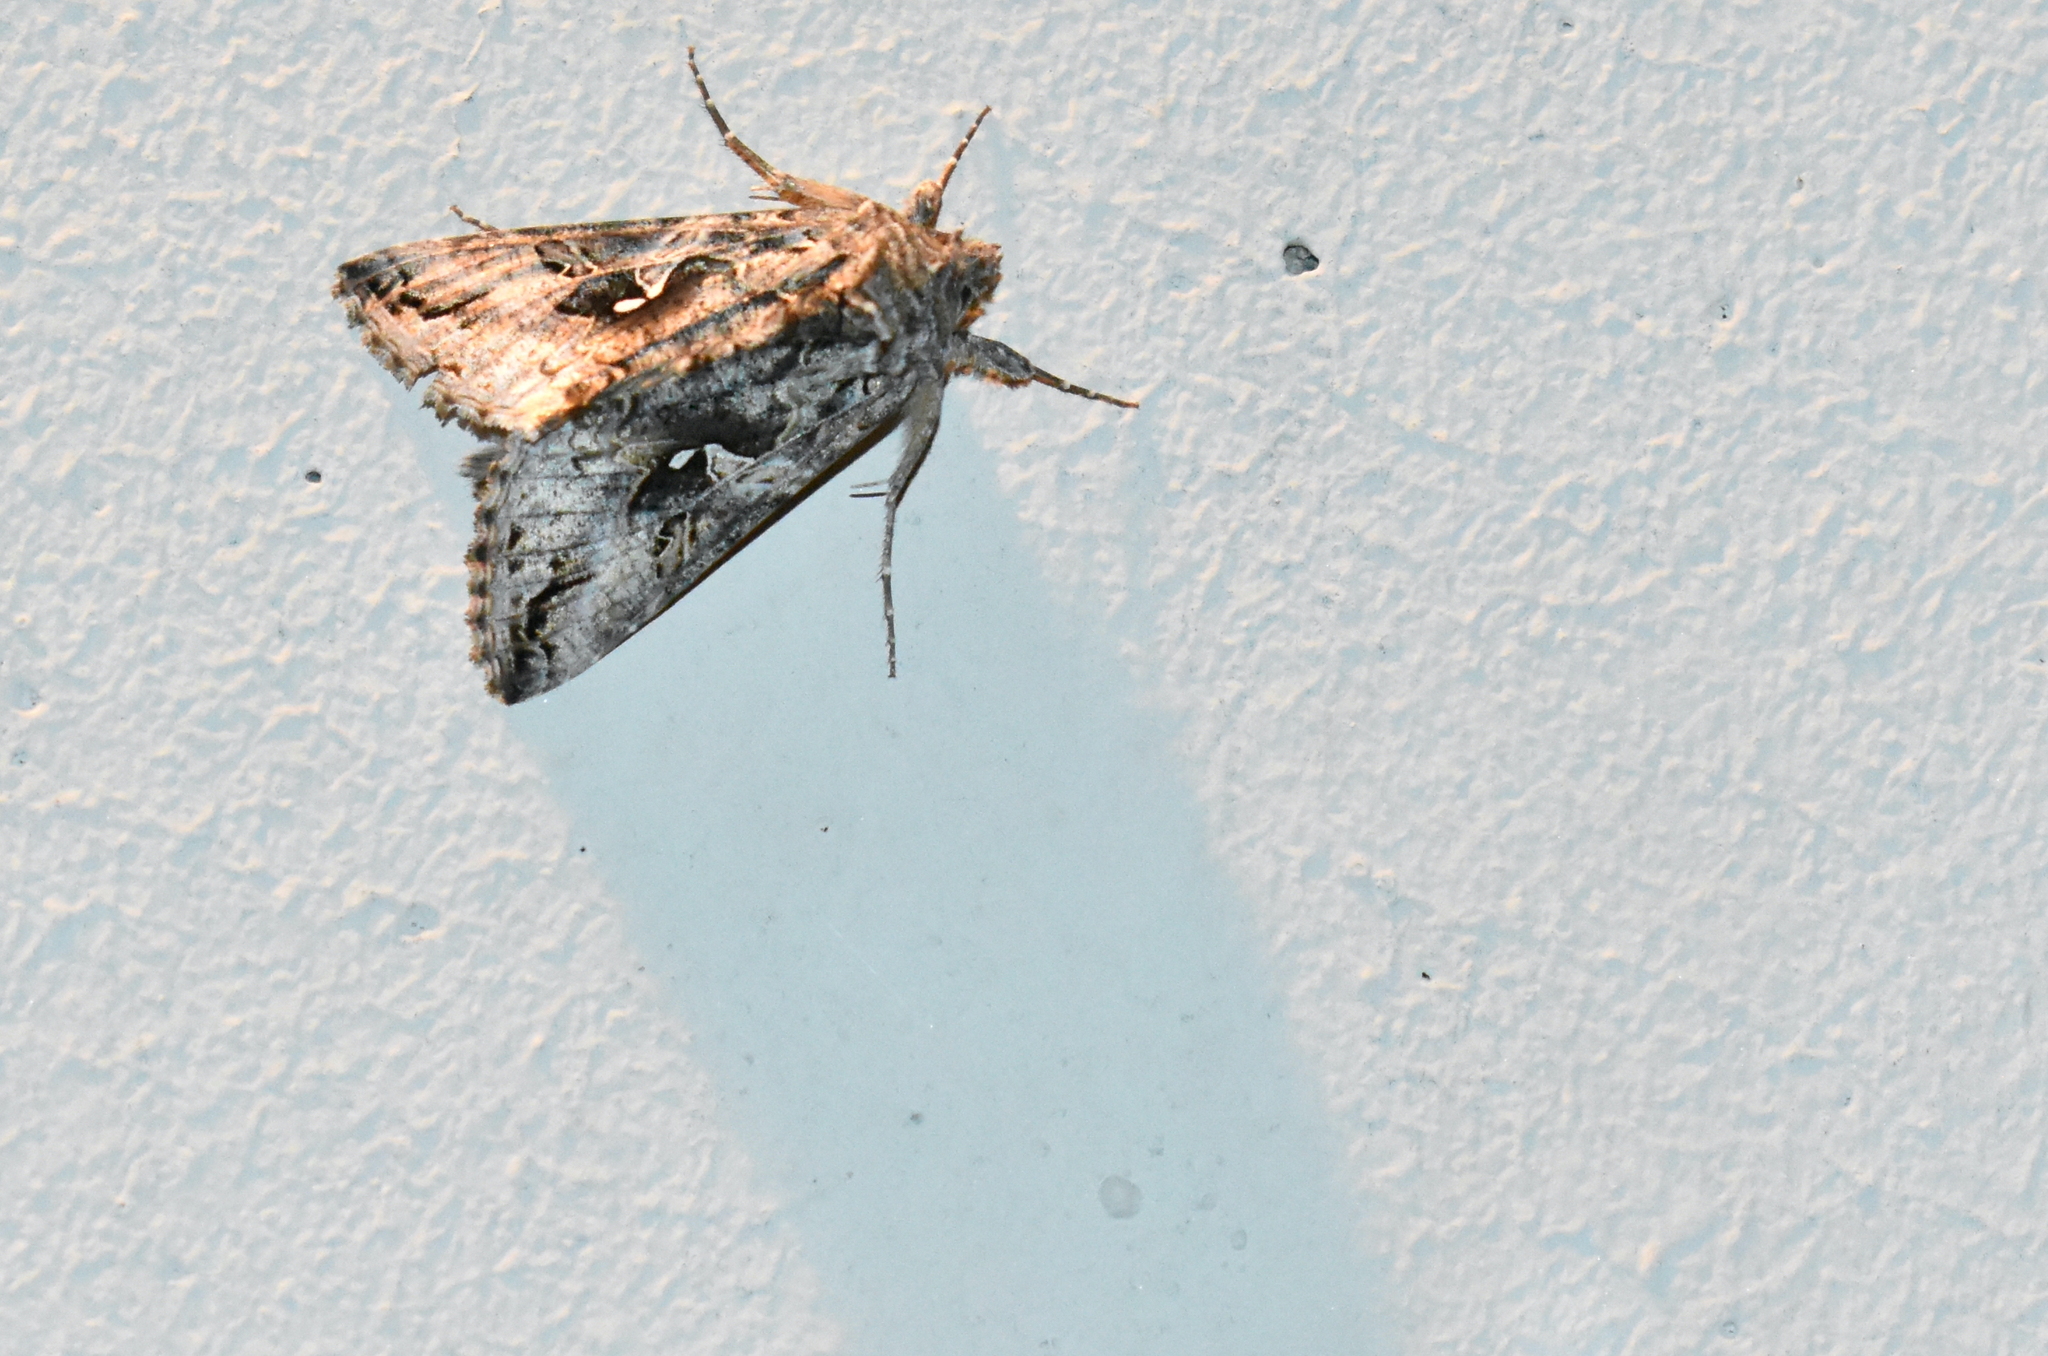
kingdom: Animalia
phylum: Arthropoda
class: Insecta
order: Lepidoptera
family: Noctuidae
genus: Autographa
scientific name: Autographa californica
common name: Alfalfa looper
